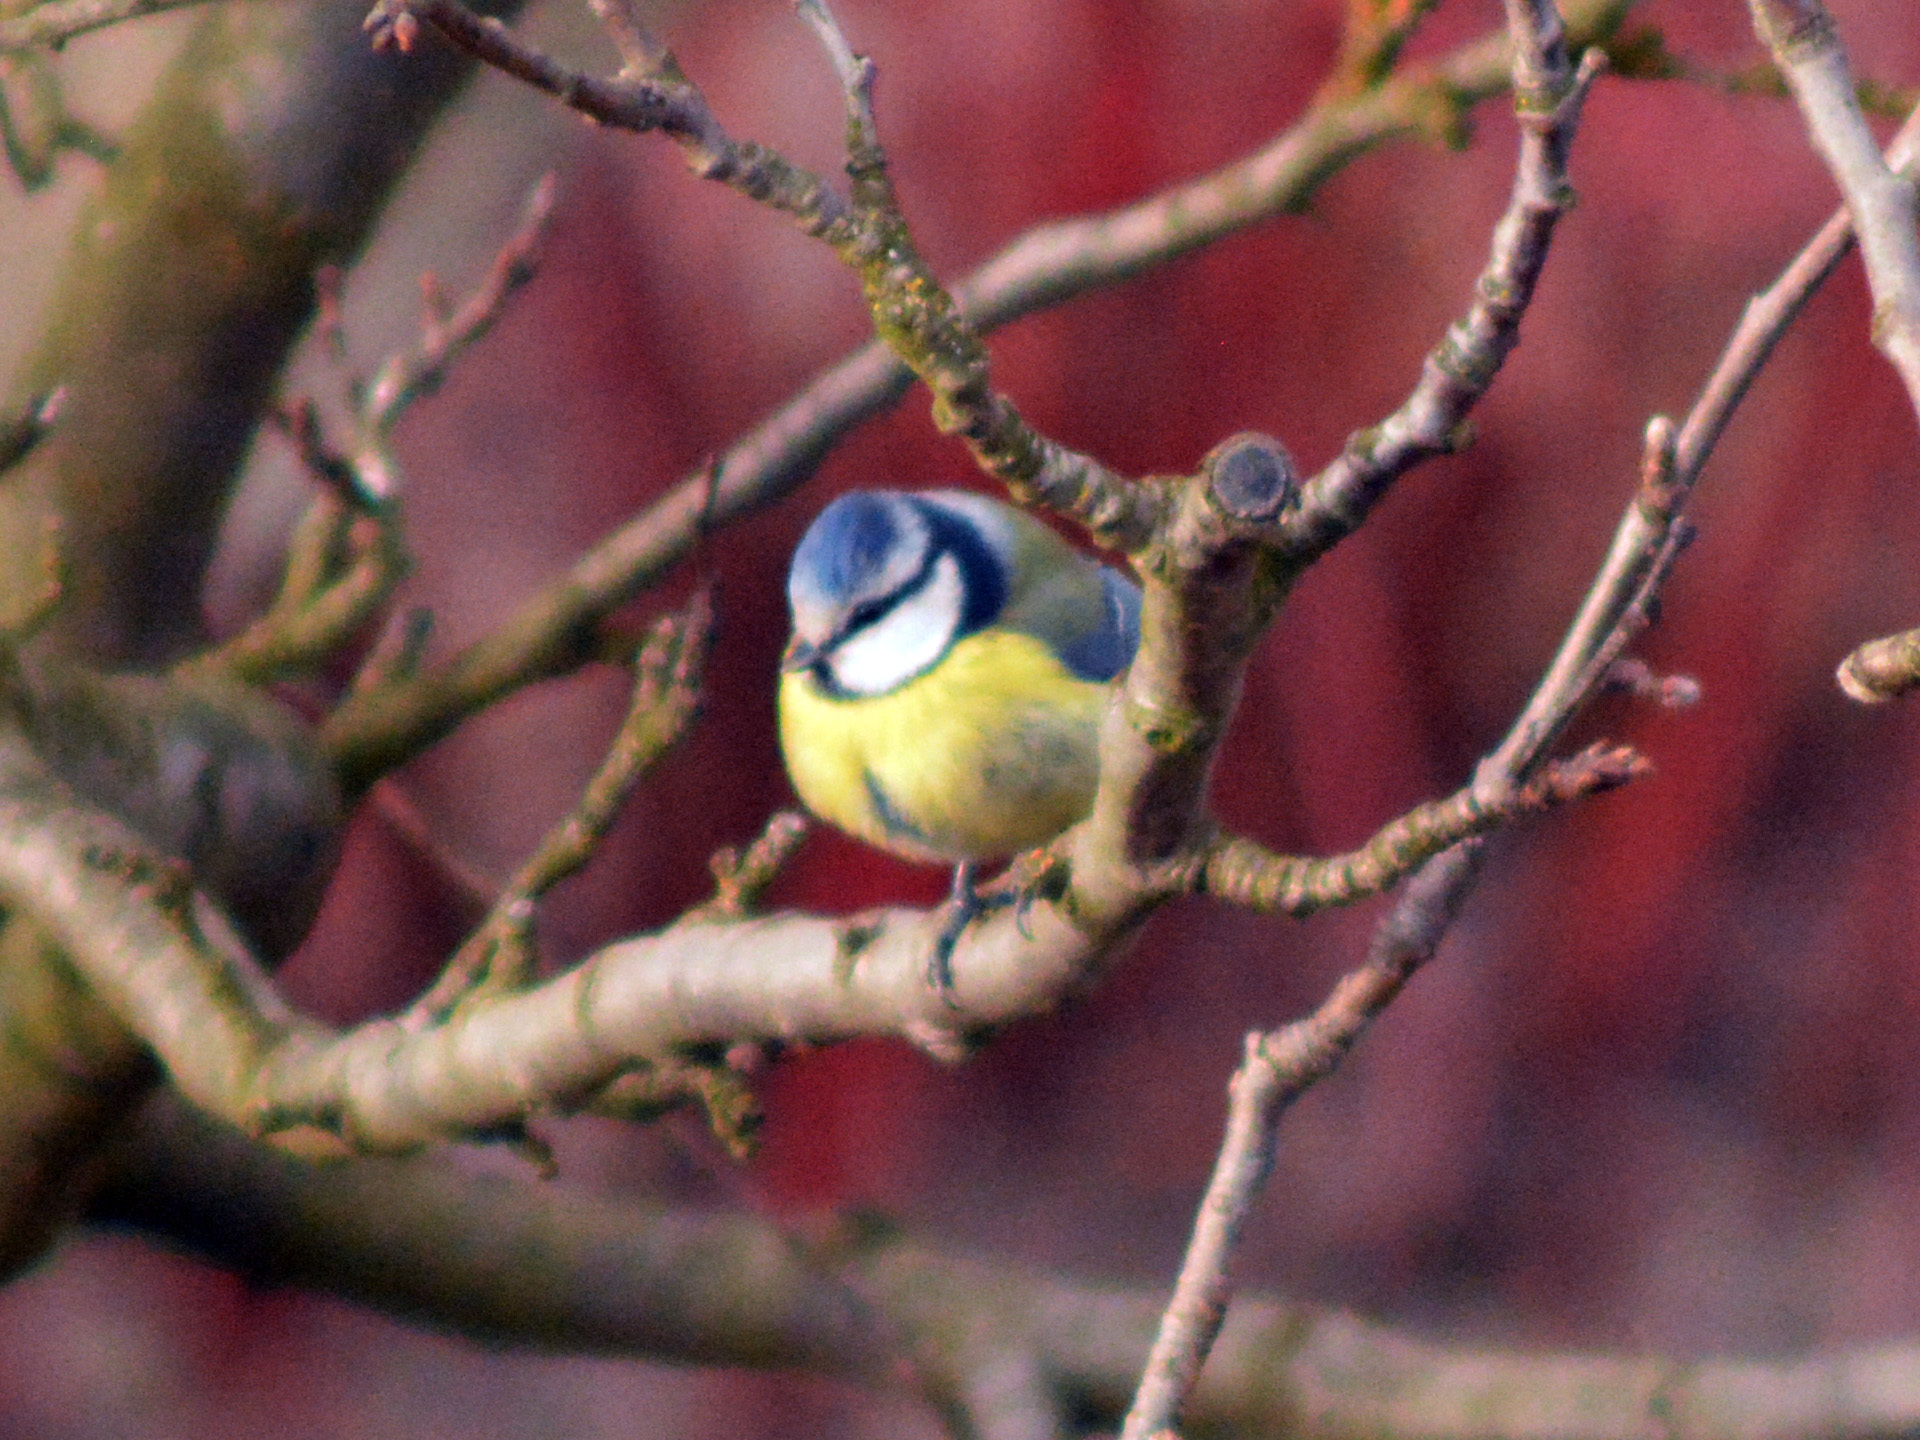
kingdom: Animalia
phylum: Chordata
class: Aves
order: Passeriformes
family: Paridae
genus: Cyanistes
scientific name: Cyanistes caeruleus
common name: Eurasian blue tit
